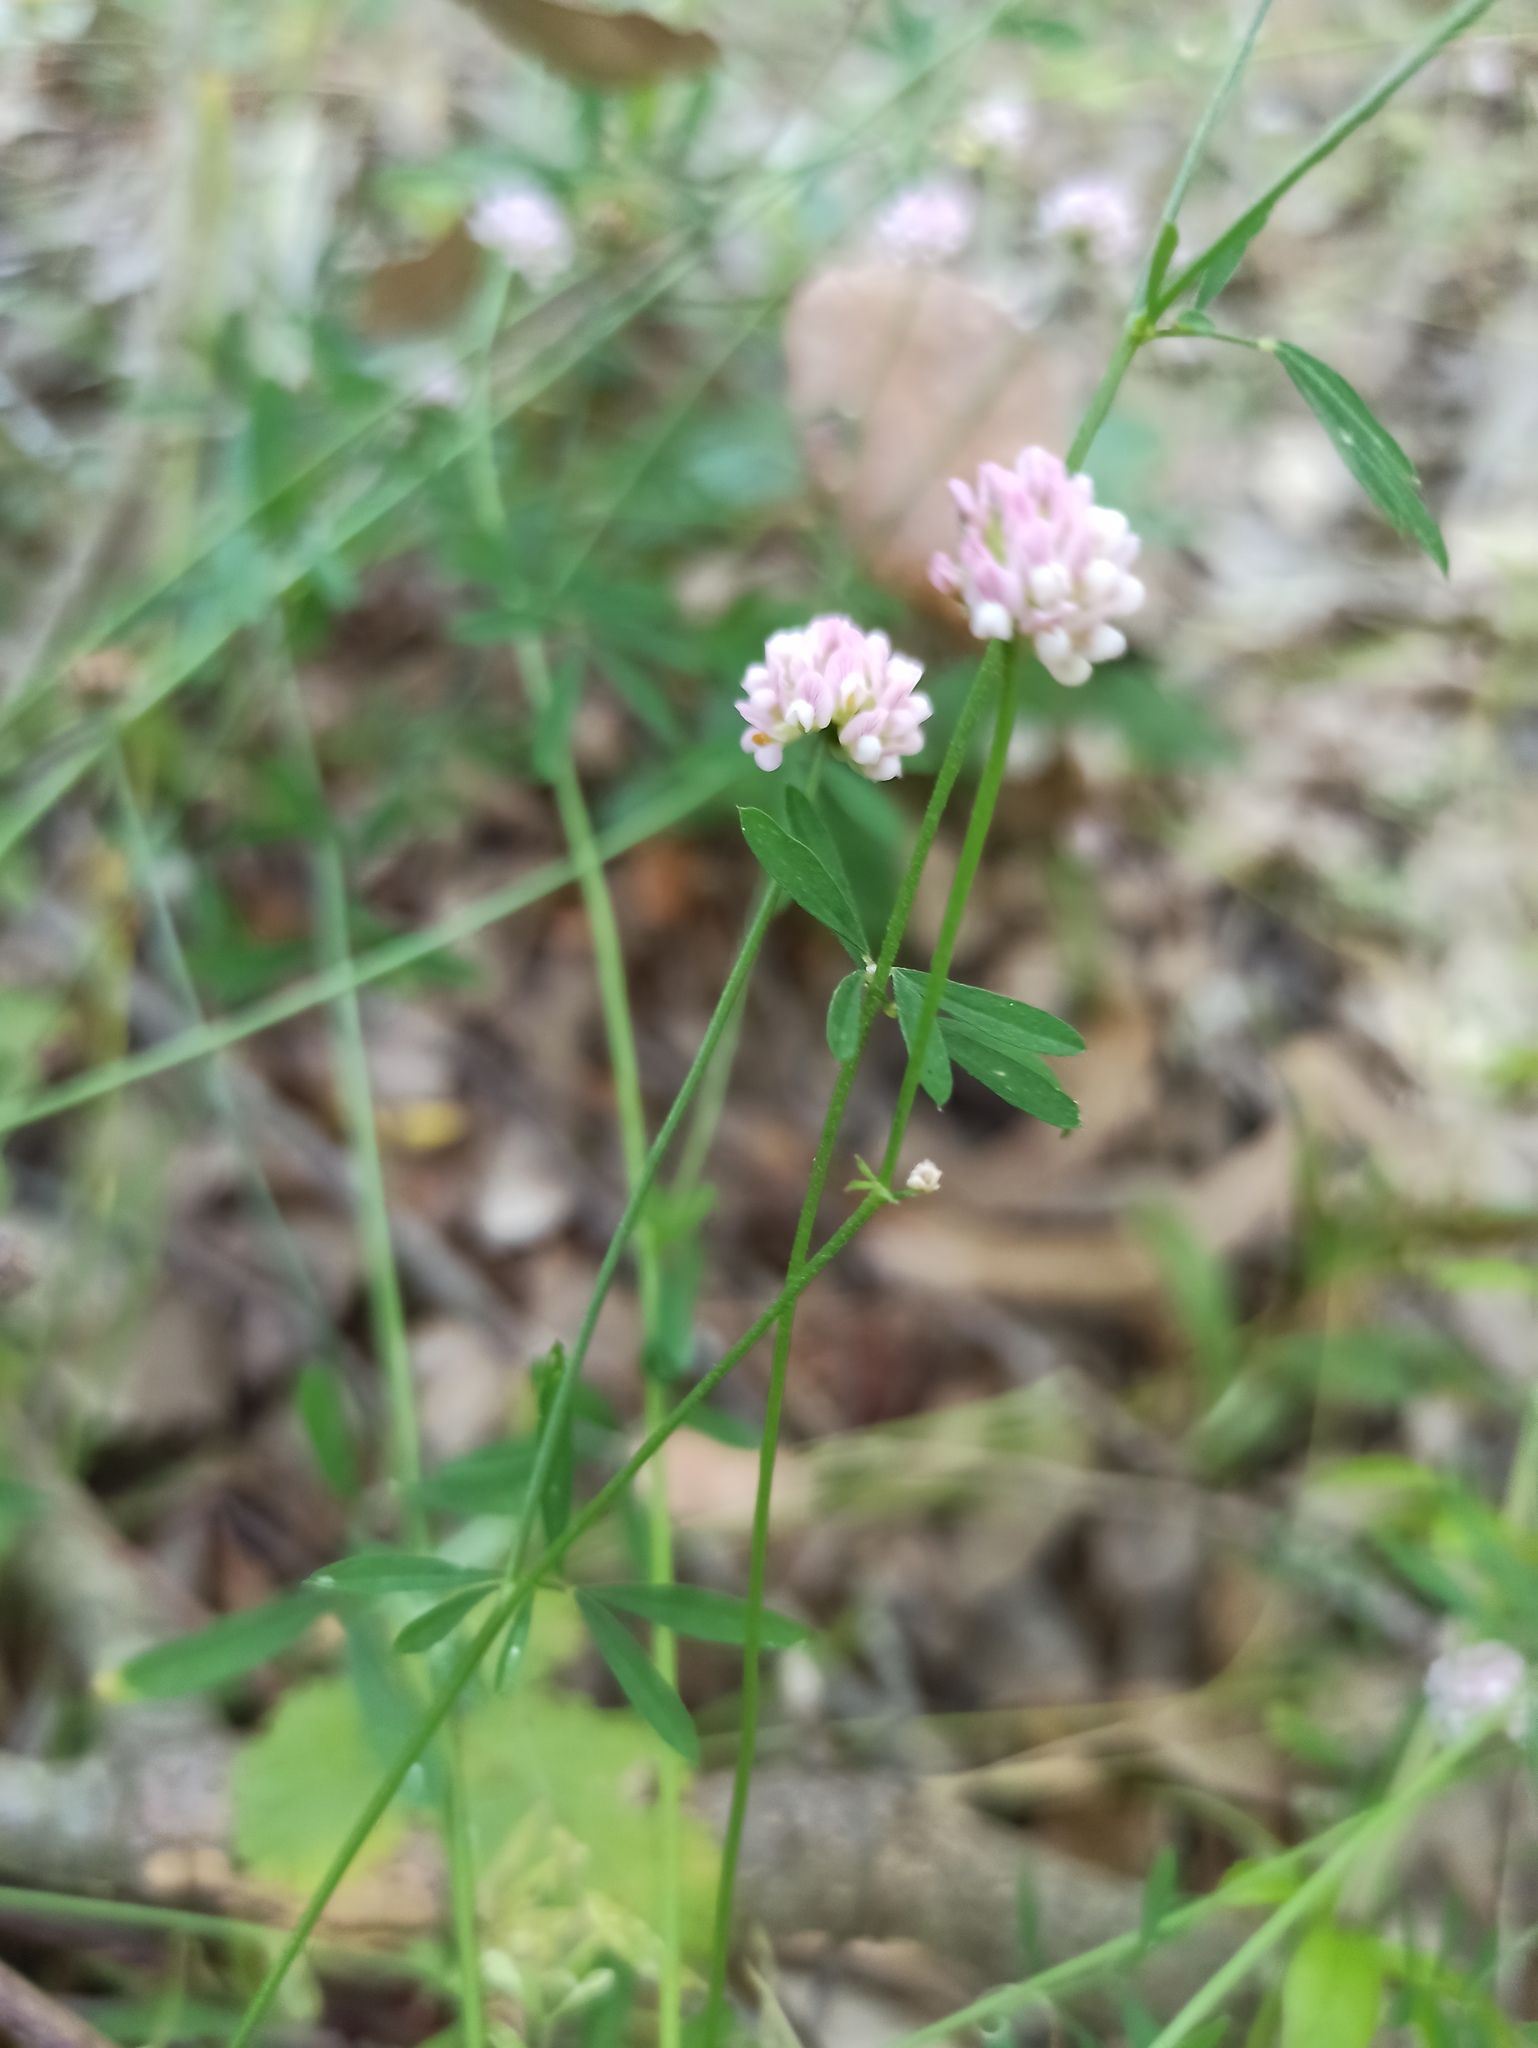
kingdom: Plantae
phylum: Tracheophyta
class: Magnoliopsida
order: Fabales
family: Fabaceae
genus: Dorycnopsis
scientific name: Dorycnopsis gerardi
